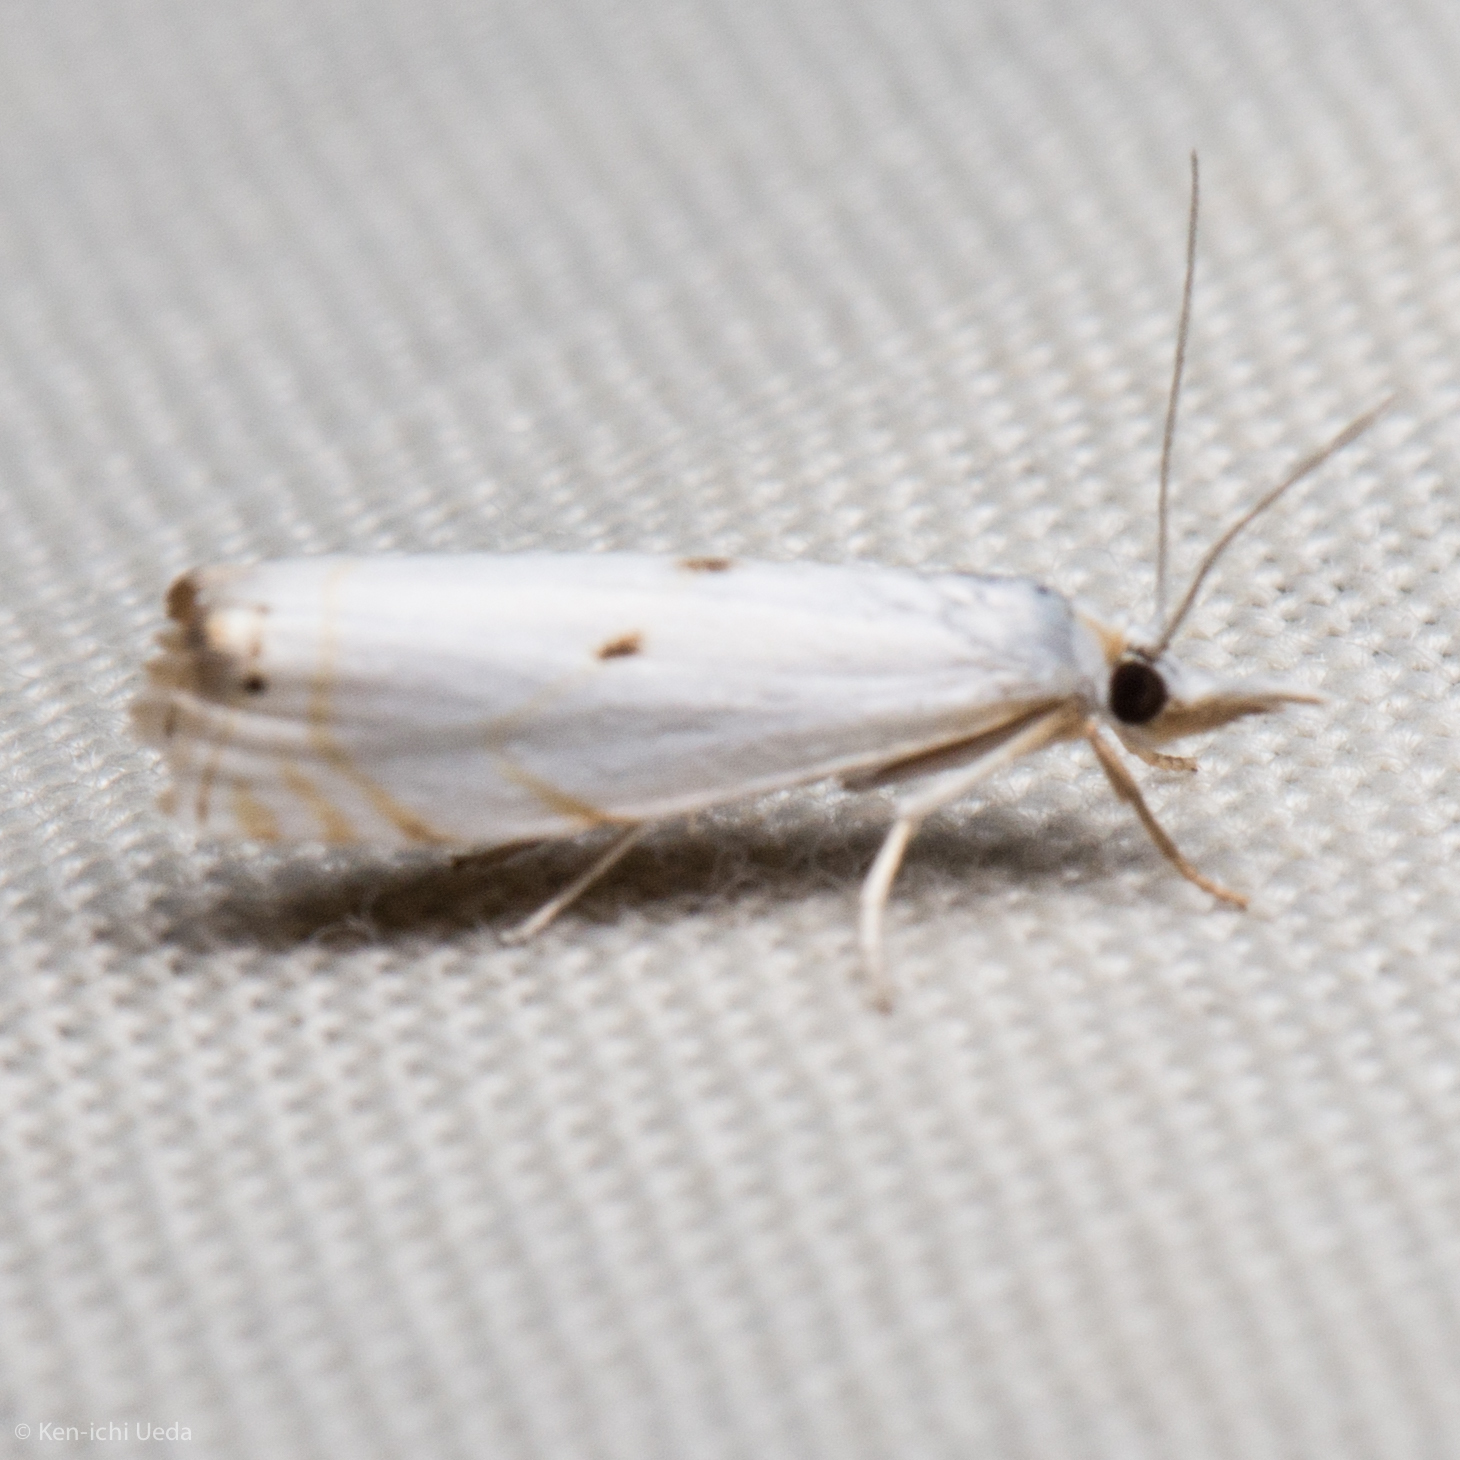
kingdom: Animalia
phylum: Arthropoda
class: Insecta
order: Lepidoptera
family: Crambidae
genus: Microcrambus
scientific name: Microcrambus biguttellus
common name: Gold-stripe grass-veneer moth
